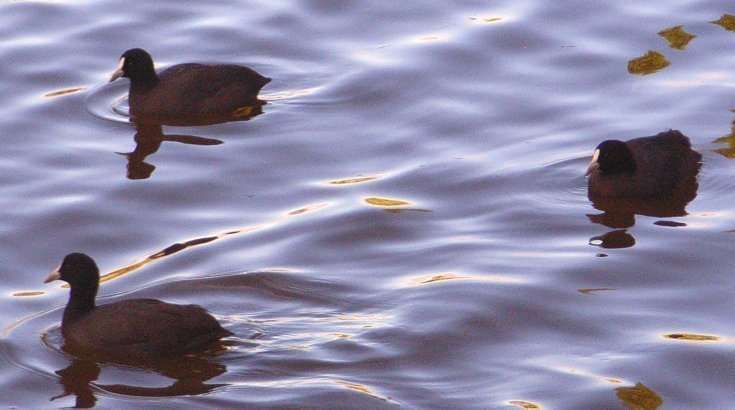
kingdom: Animalia
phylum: Chordata
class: Aves
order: Gruiformes
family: Rallidae
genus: Fulica
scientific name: Fulica atra
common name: Eurasian coot
